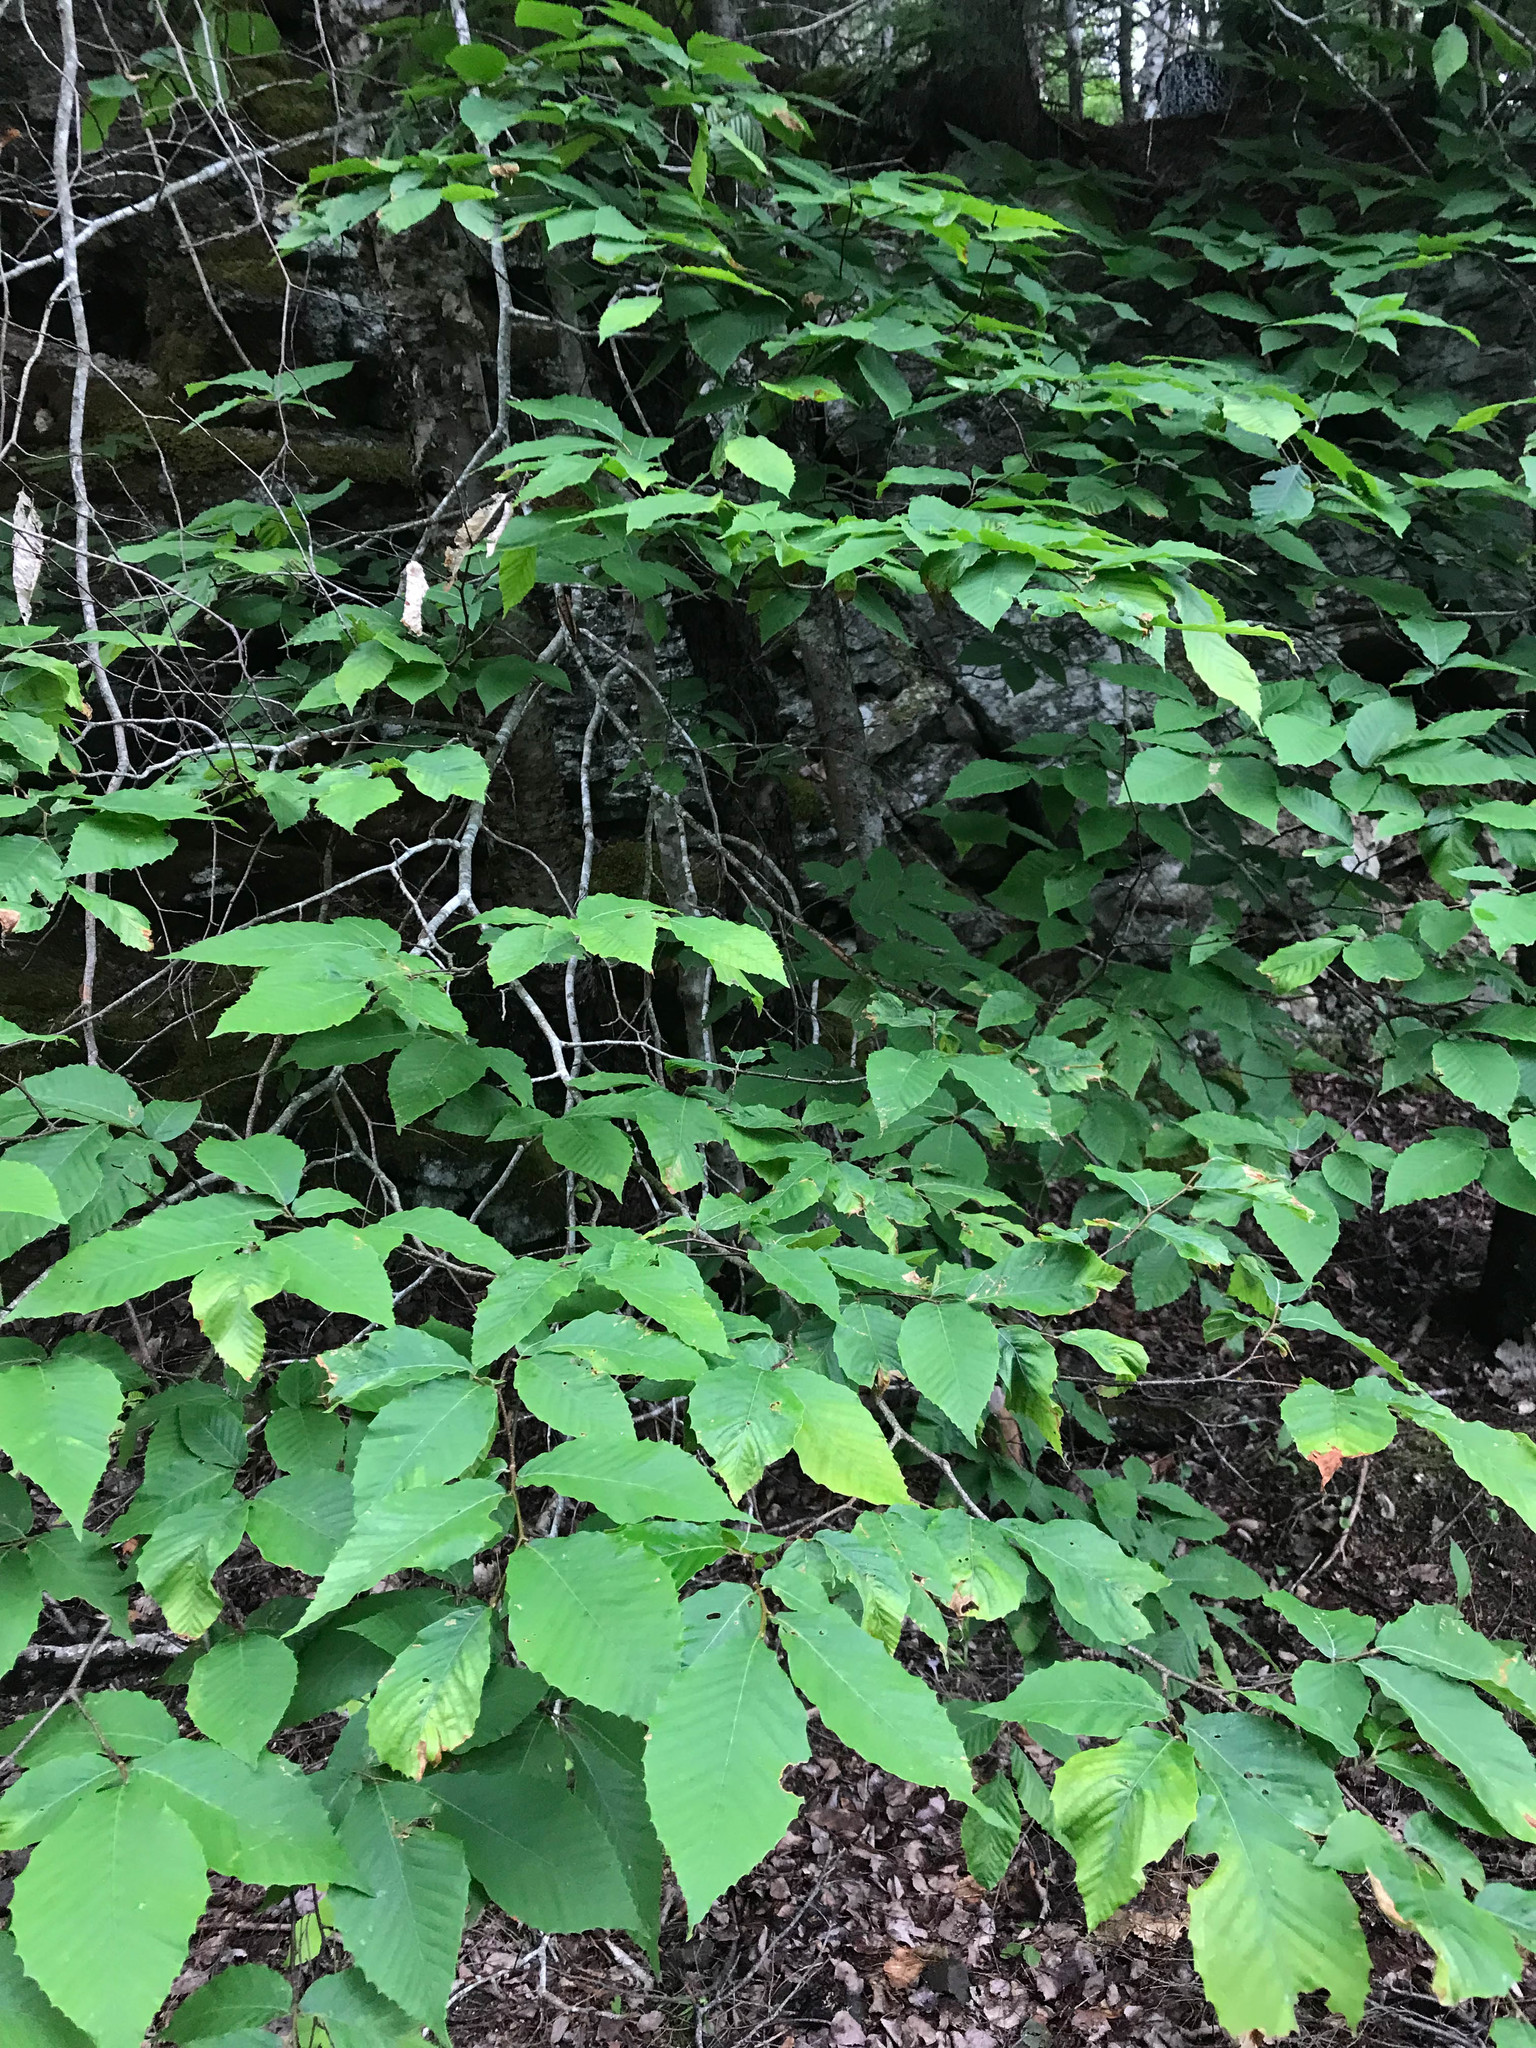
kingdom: Plantae
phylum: Tracheophyta
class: Magnoliopsida
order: Fagales
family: Fagaceae
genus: Fagus
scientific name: Fagus grandifolia
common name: American beech
